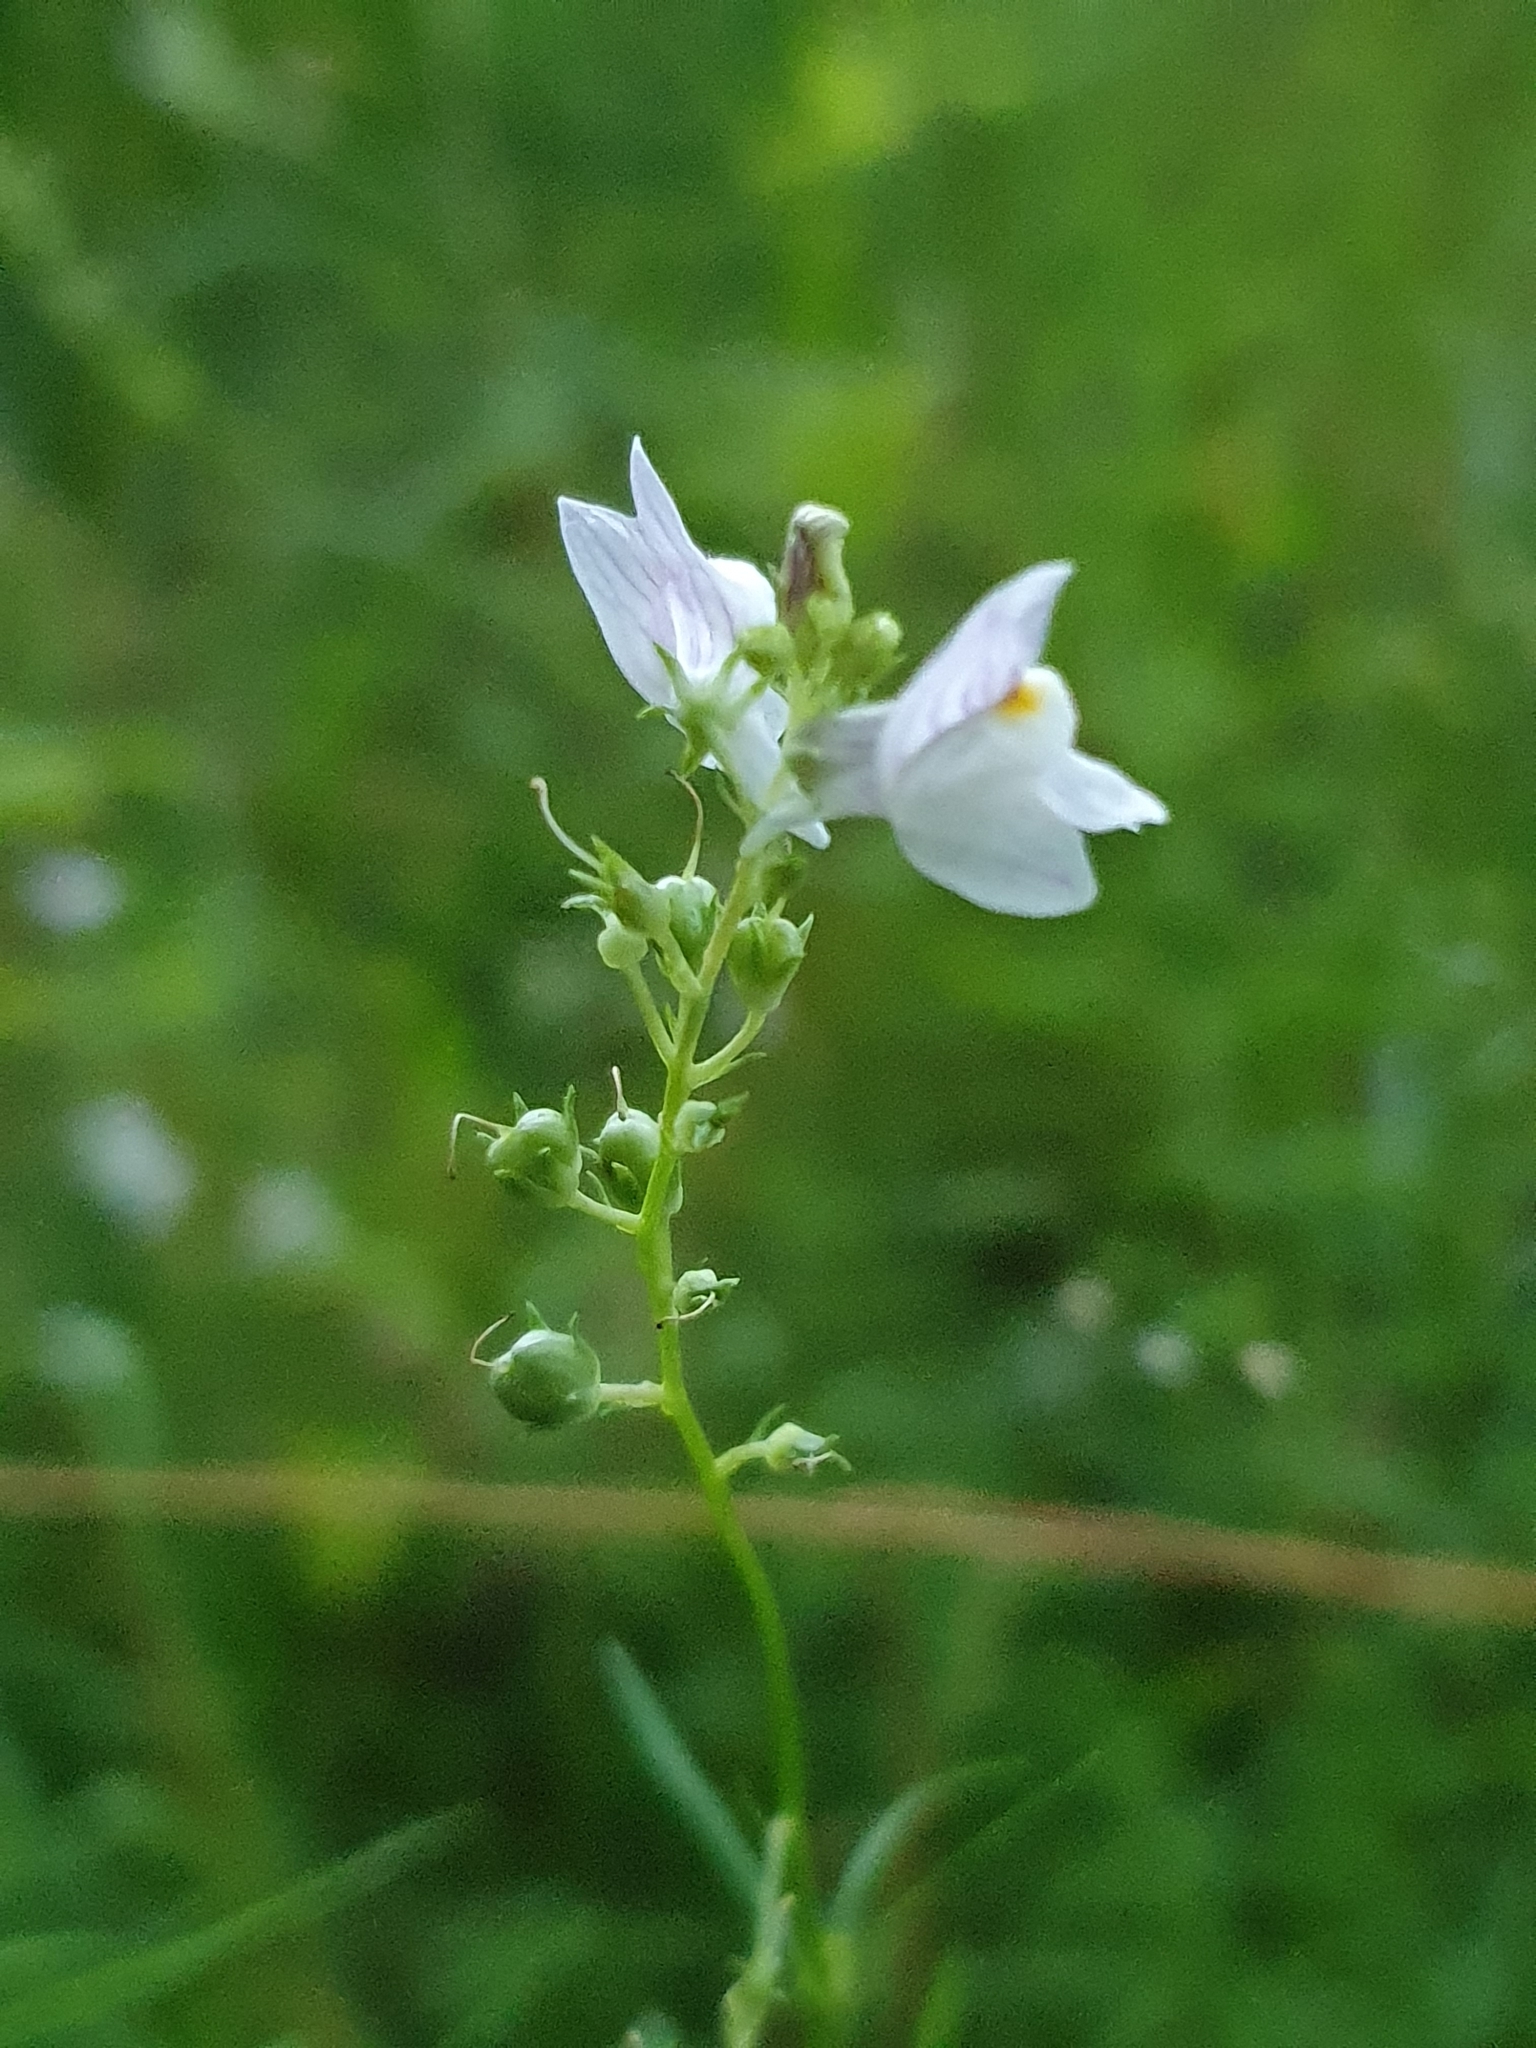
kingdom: Plantae
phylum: Tracheophyta
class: Magnoliopsida
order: Lamiales
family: Plantaginaceae
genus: Linaria
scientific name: Linaria repens
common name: Pale toadflax
